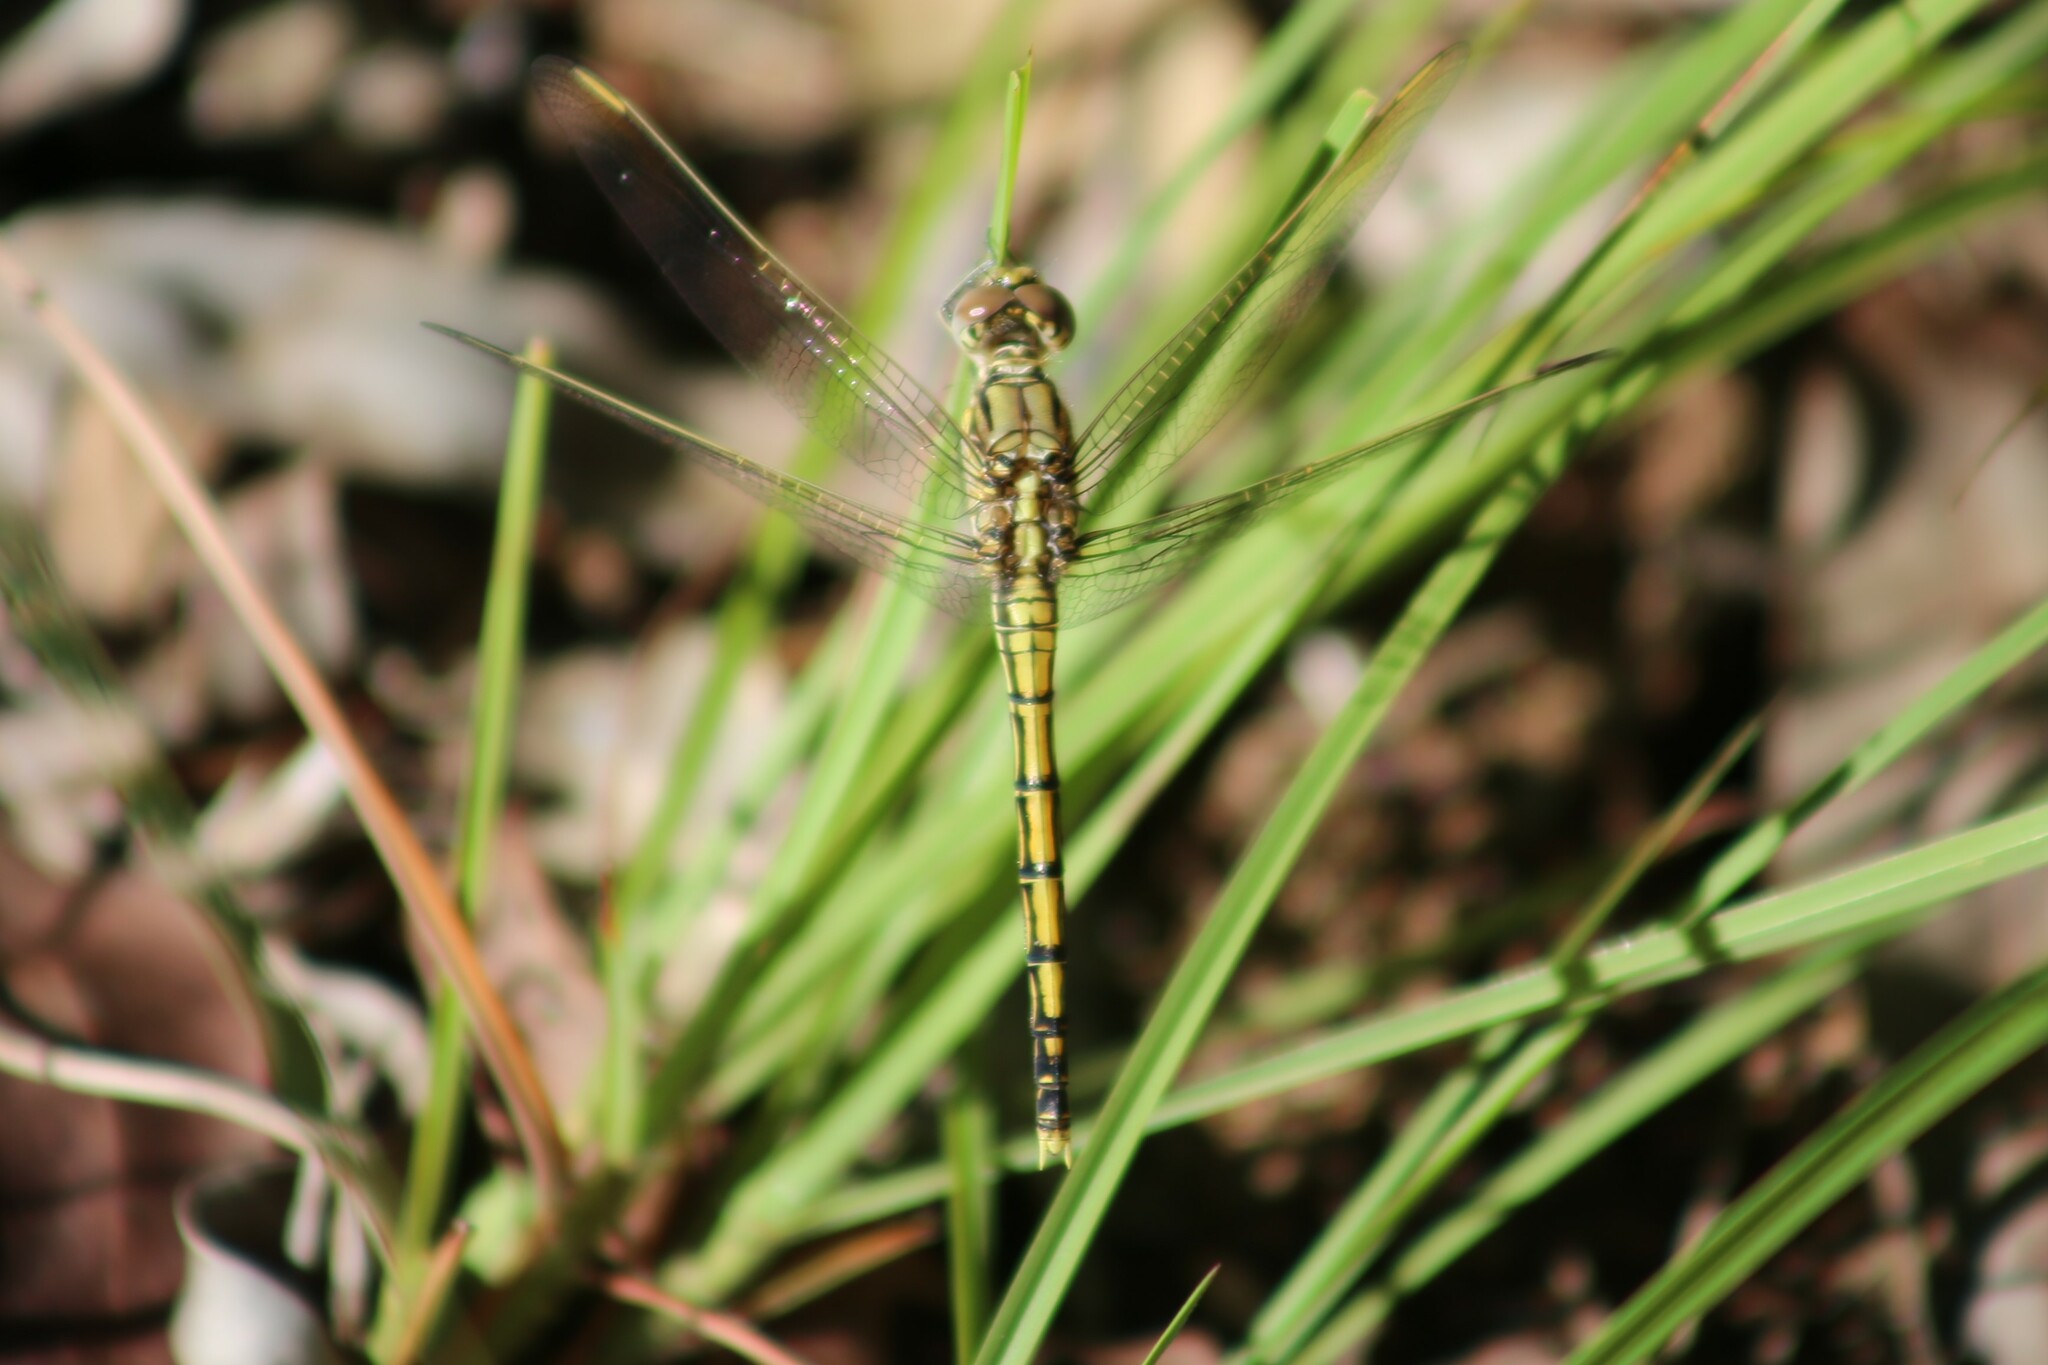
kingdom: Animalia
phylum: Arthropoda
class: Insecta
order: Odonata
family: Libellulidae
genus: Orthetrum
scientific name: Orthetrum caledonicum
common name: Blue skimmer
